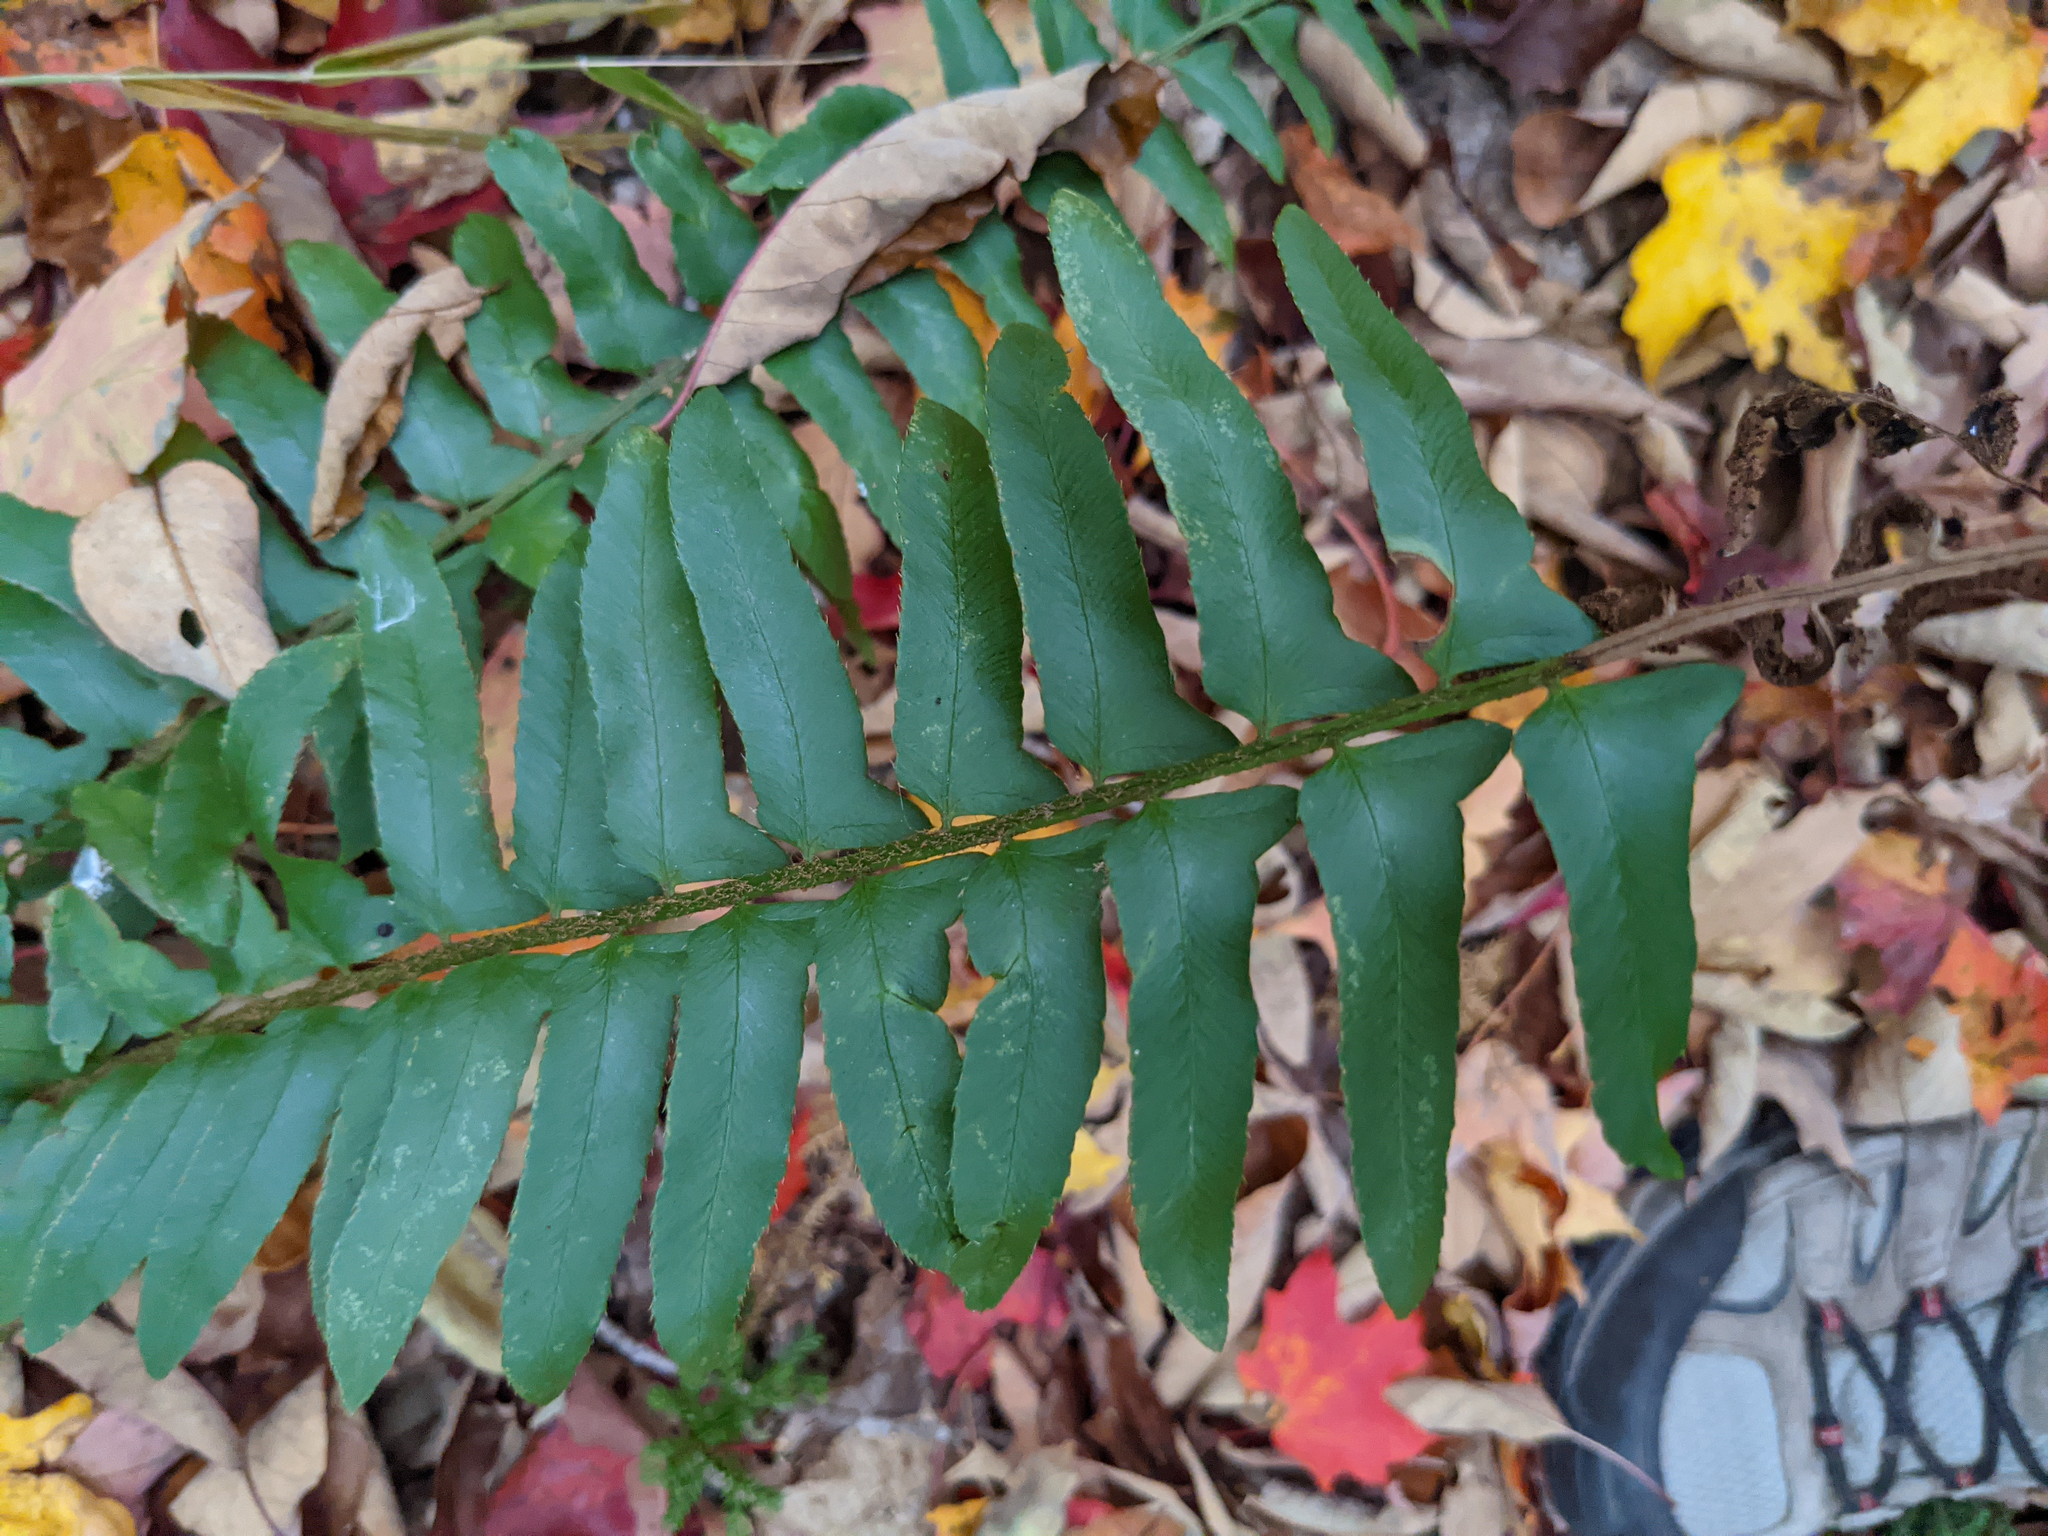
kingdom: Plantae
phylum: Tracheophyta
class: Polypodiopsida
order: Polypodiales
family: Dryopteridaceae
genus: Polystichum
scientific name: Polystichum acrostichoides
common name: Christmas fern
